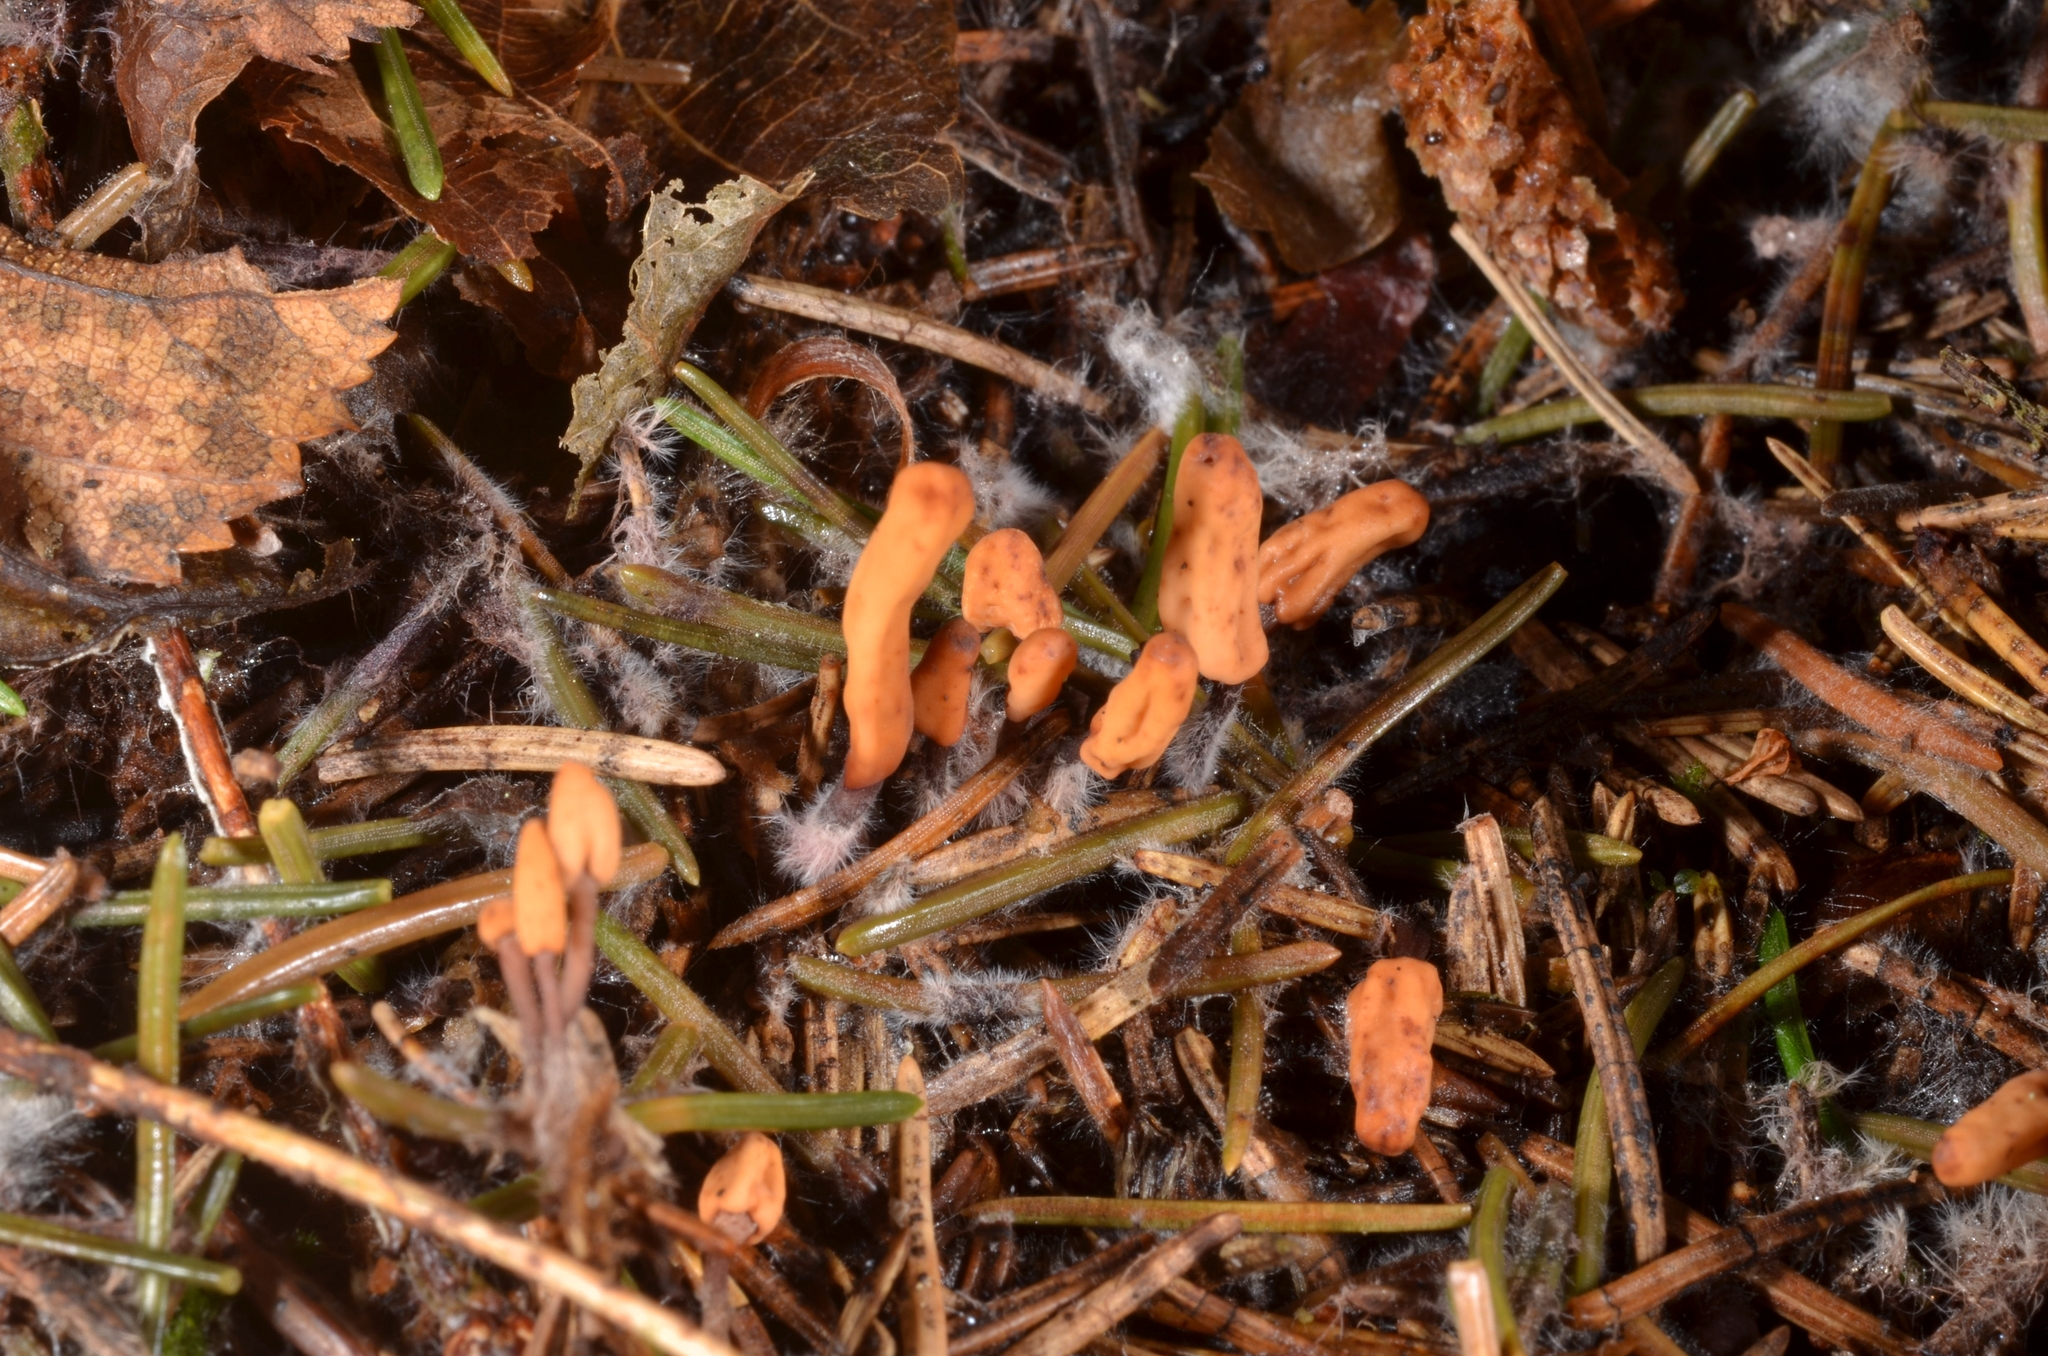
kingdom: Fungi
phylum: Ascomycota
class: Leotiomycetes
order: Helotiales
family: Cenangiaceae
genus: Heyderia
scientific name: Heyderia cucullata
